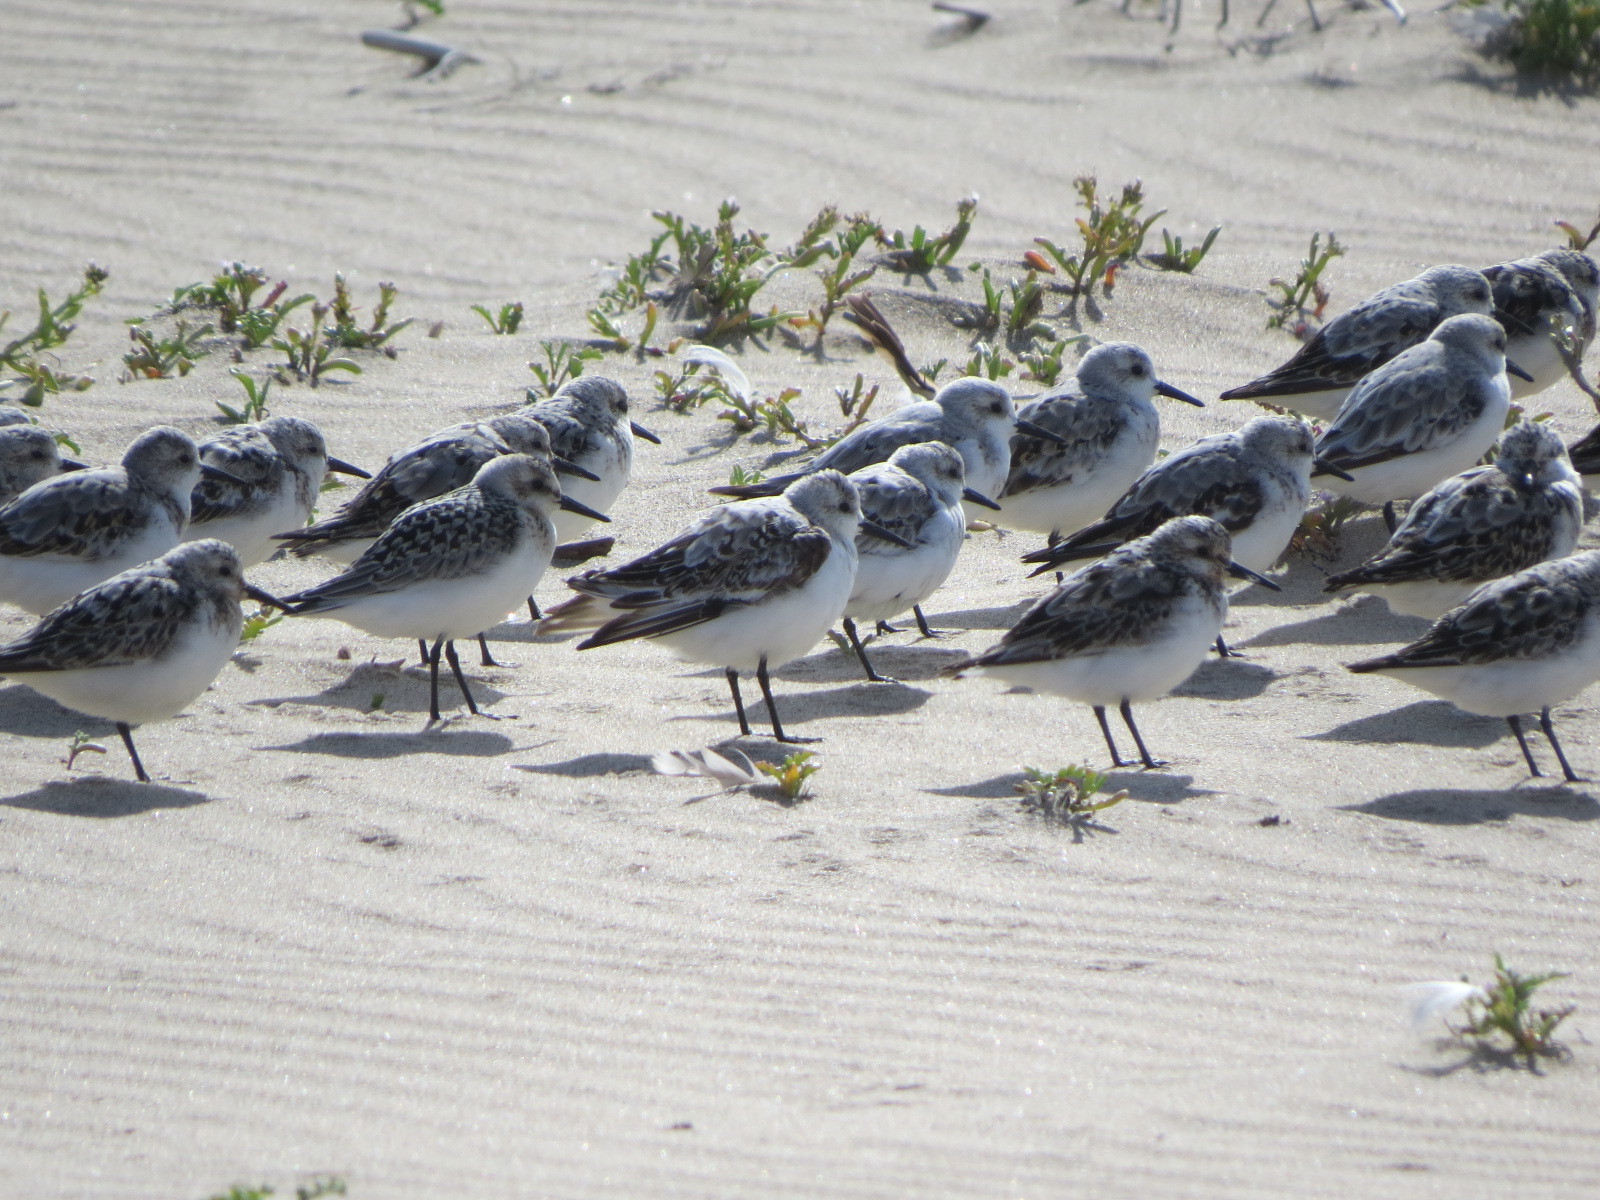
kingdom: Animalia
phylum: Chordata
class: Aves
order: Charadriiformes
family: Scolopacidae
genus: Calidris
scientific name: Calidris alba
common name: Sanderling
